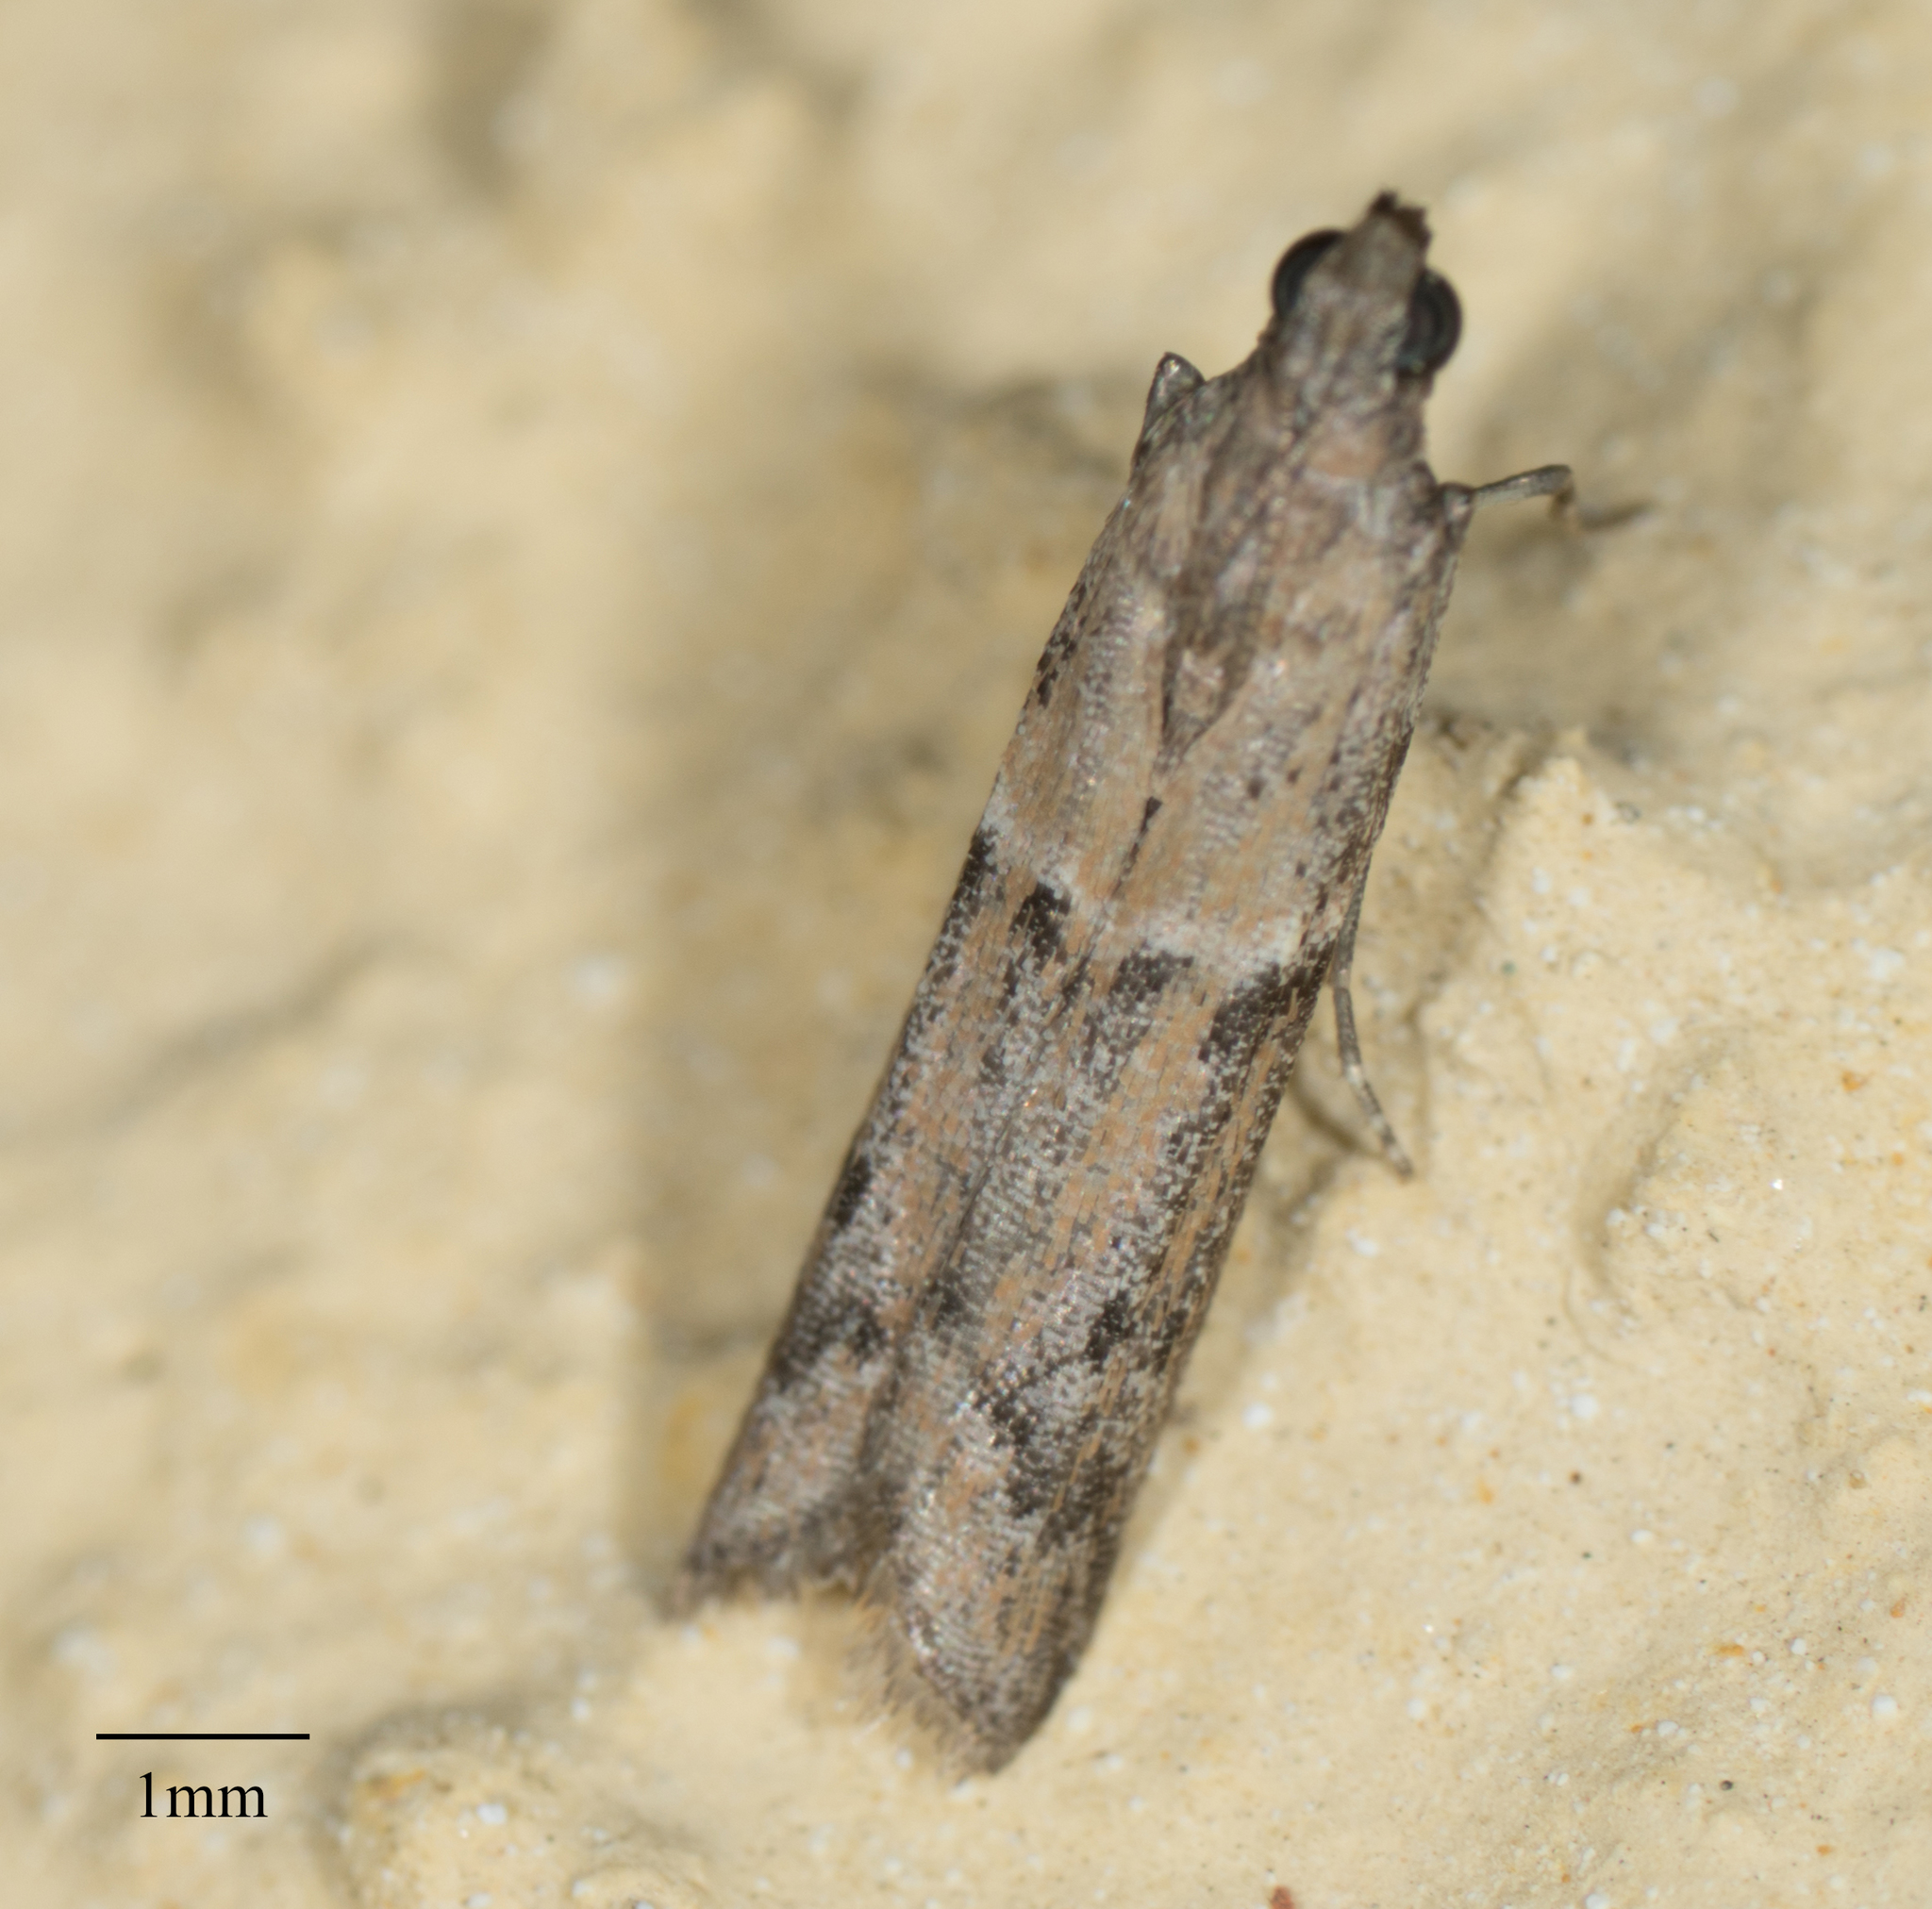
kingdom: Animalia
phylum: Arthropoda
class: Insecta
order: Lepidoptera
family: Pyralidae
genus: Ephestiodes
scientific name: Ephestiodes gilvescentella
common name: Moth
